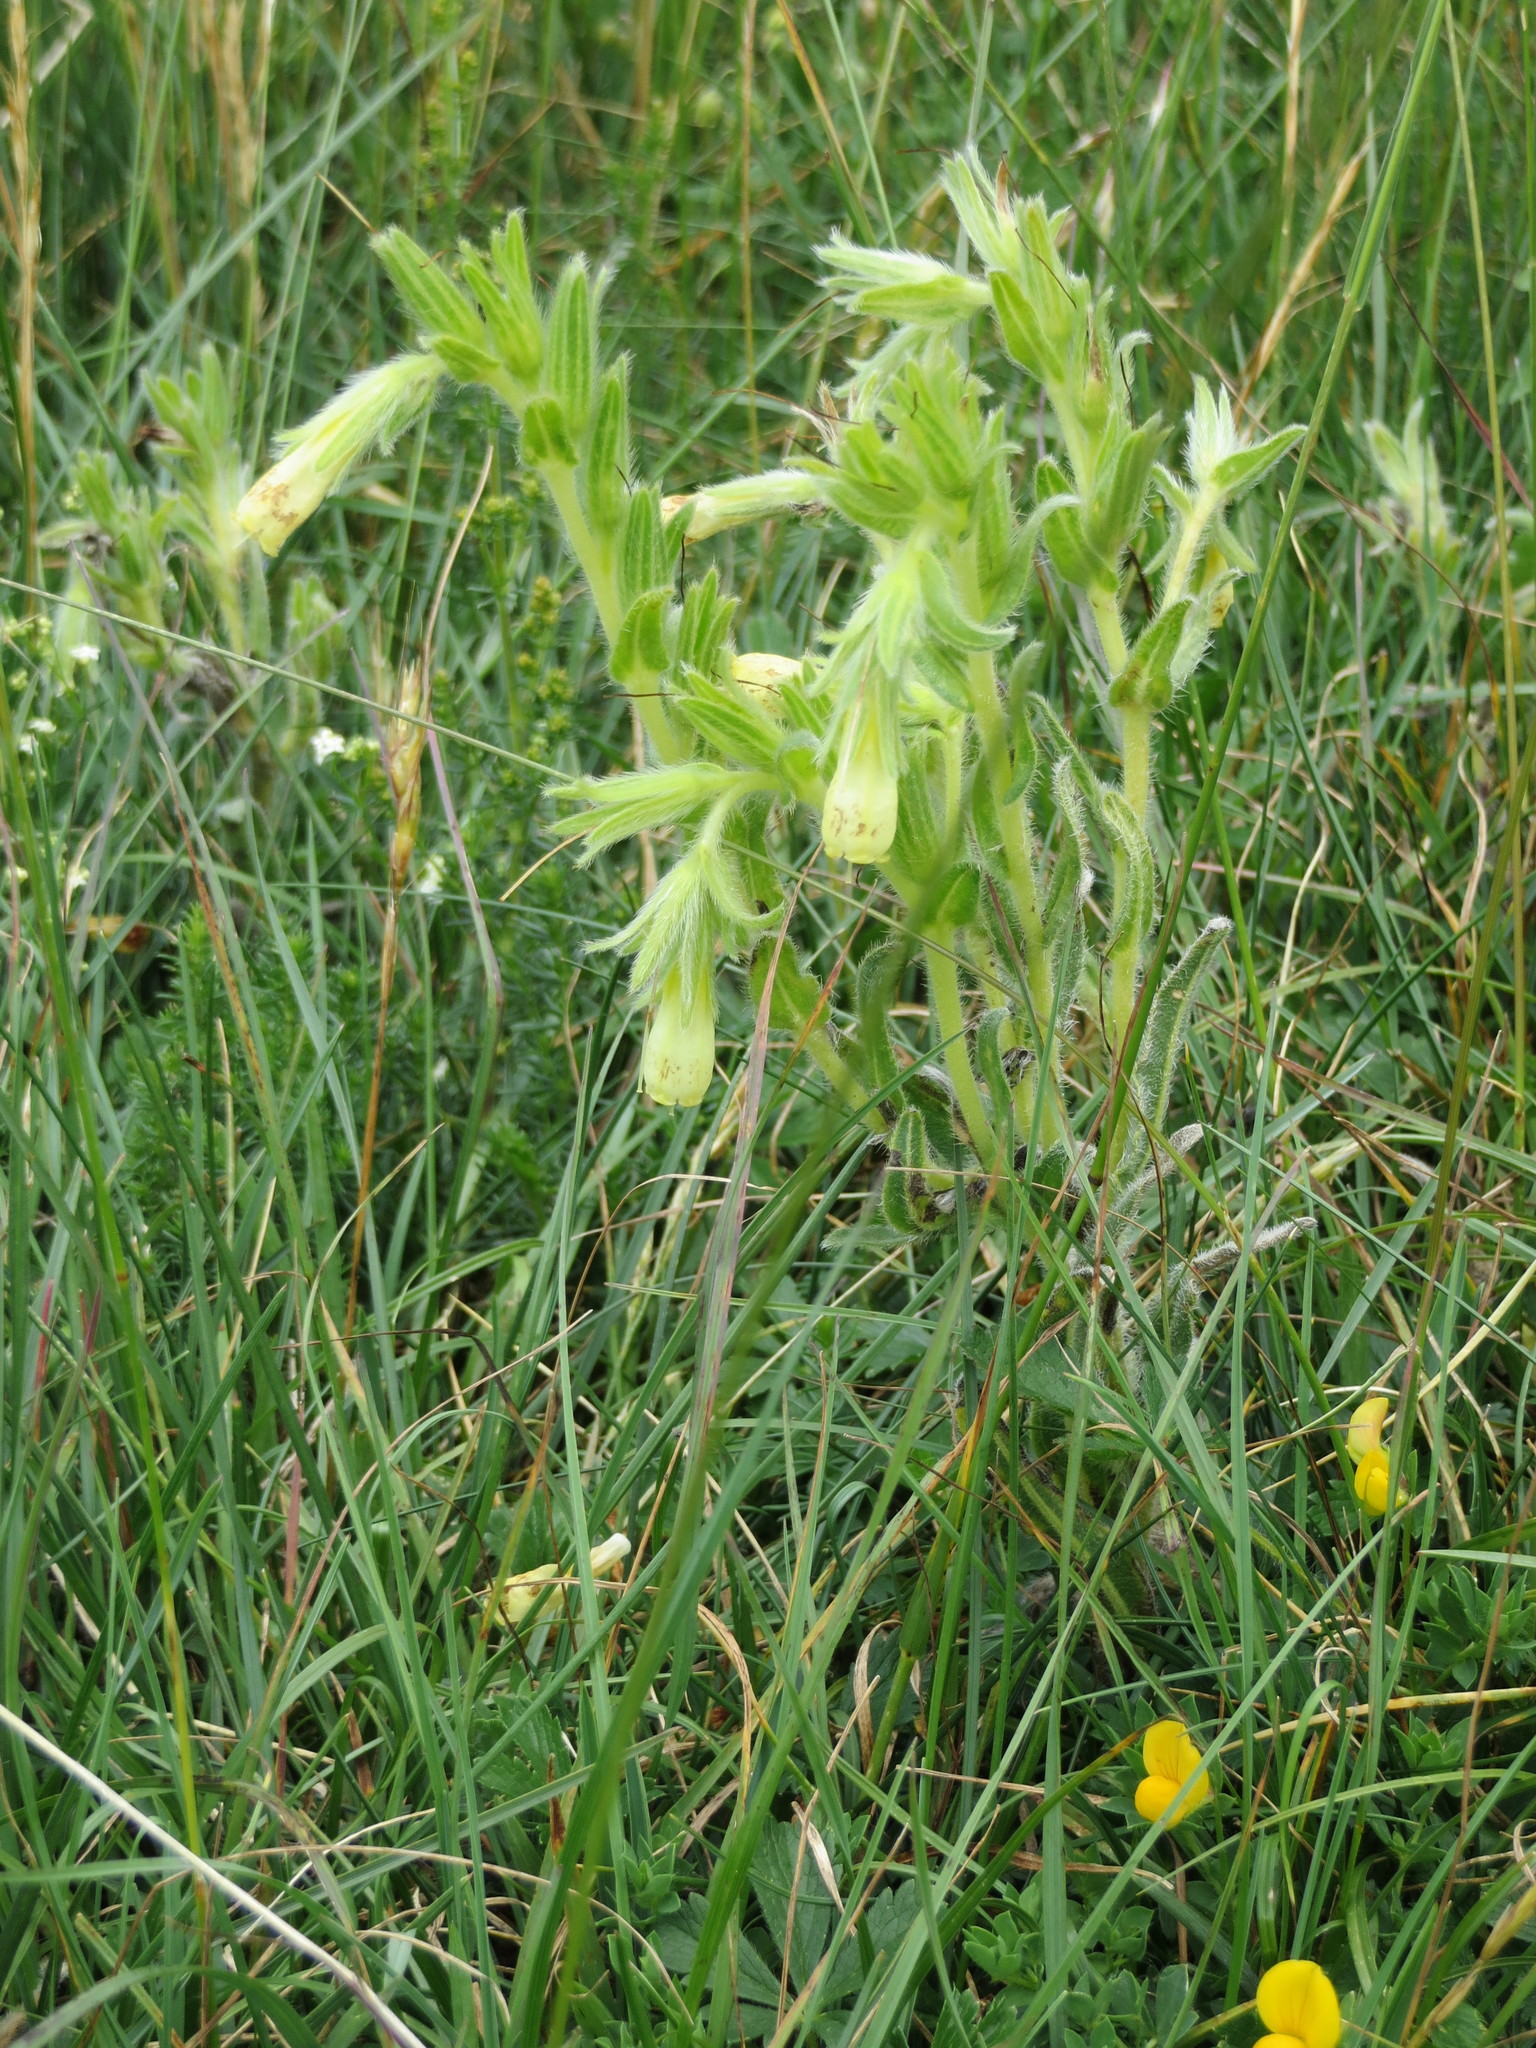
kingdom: Plantae
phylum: Tracheophyta
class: Magnoliopsida
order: Boraginales
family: Boraginaceae
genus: Onosma
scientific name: Onosma tricerosperma
